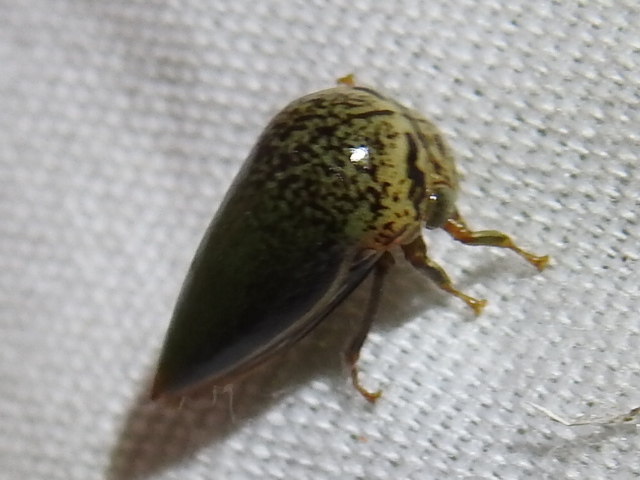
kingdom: Animalia
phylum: Arthropoda
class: Insecta
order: Hemiptera
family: Membracidae
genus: Stictopelta
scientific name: Stictopelta marmorata
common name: Treehopper
